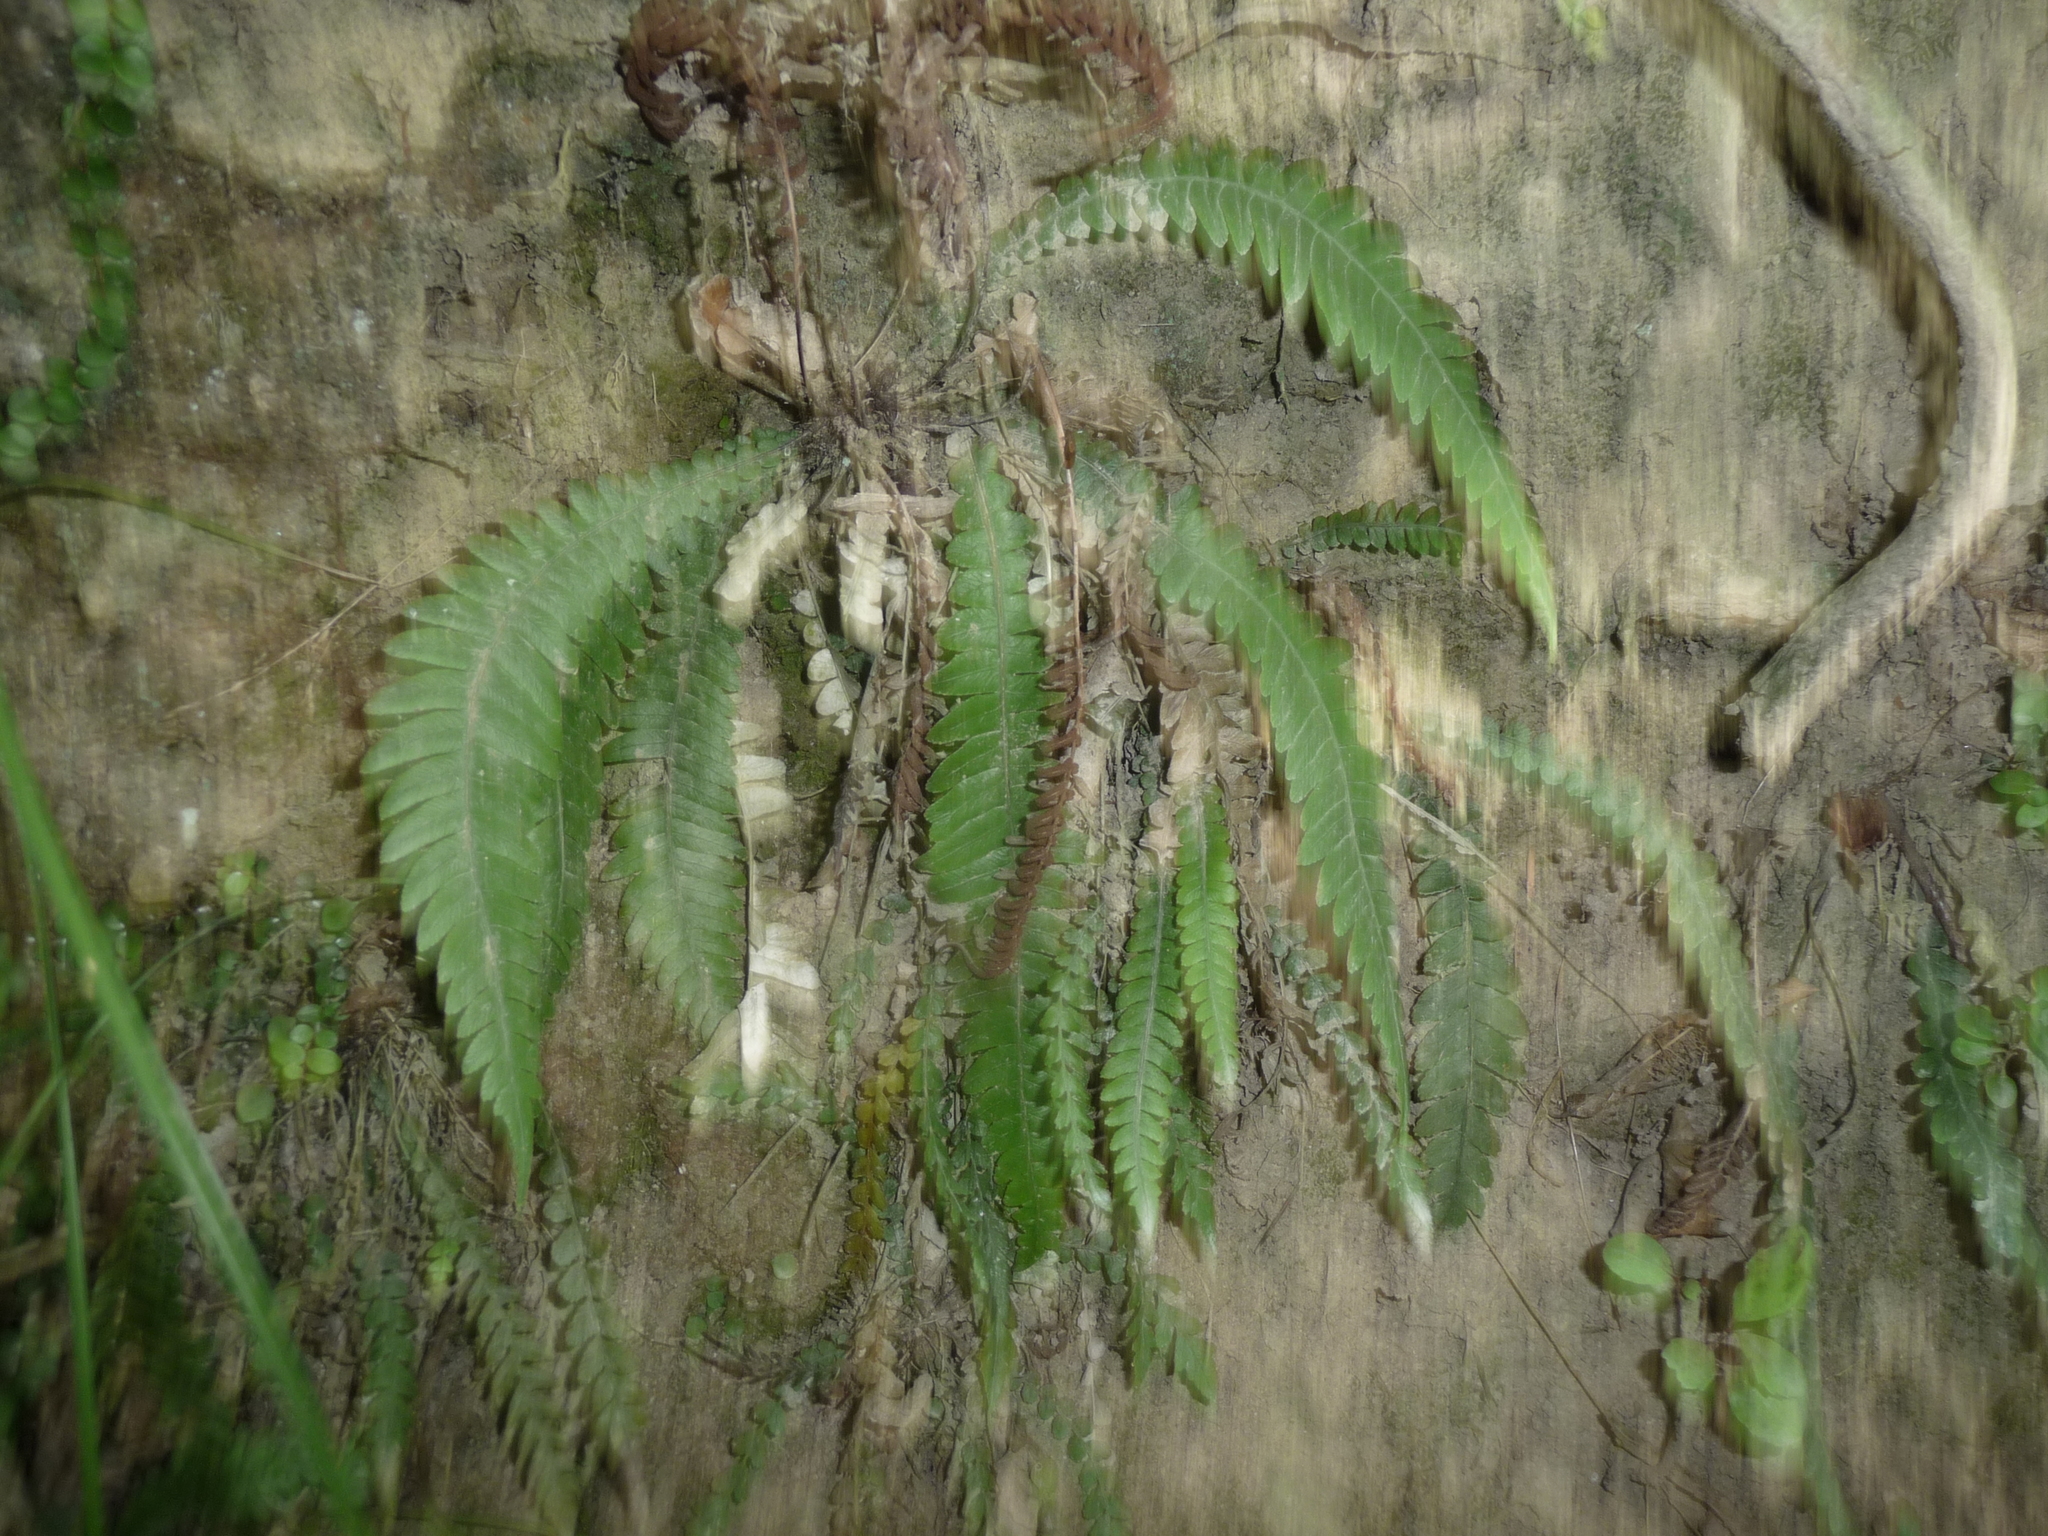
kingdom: Plantae
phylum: Tracheophyta
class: Polypodiopsida
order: Polypodiales
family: Blechnaceae
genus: Austroblechnum
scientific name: Austroblechnum lanceolatum
